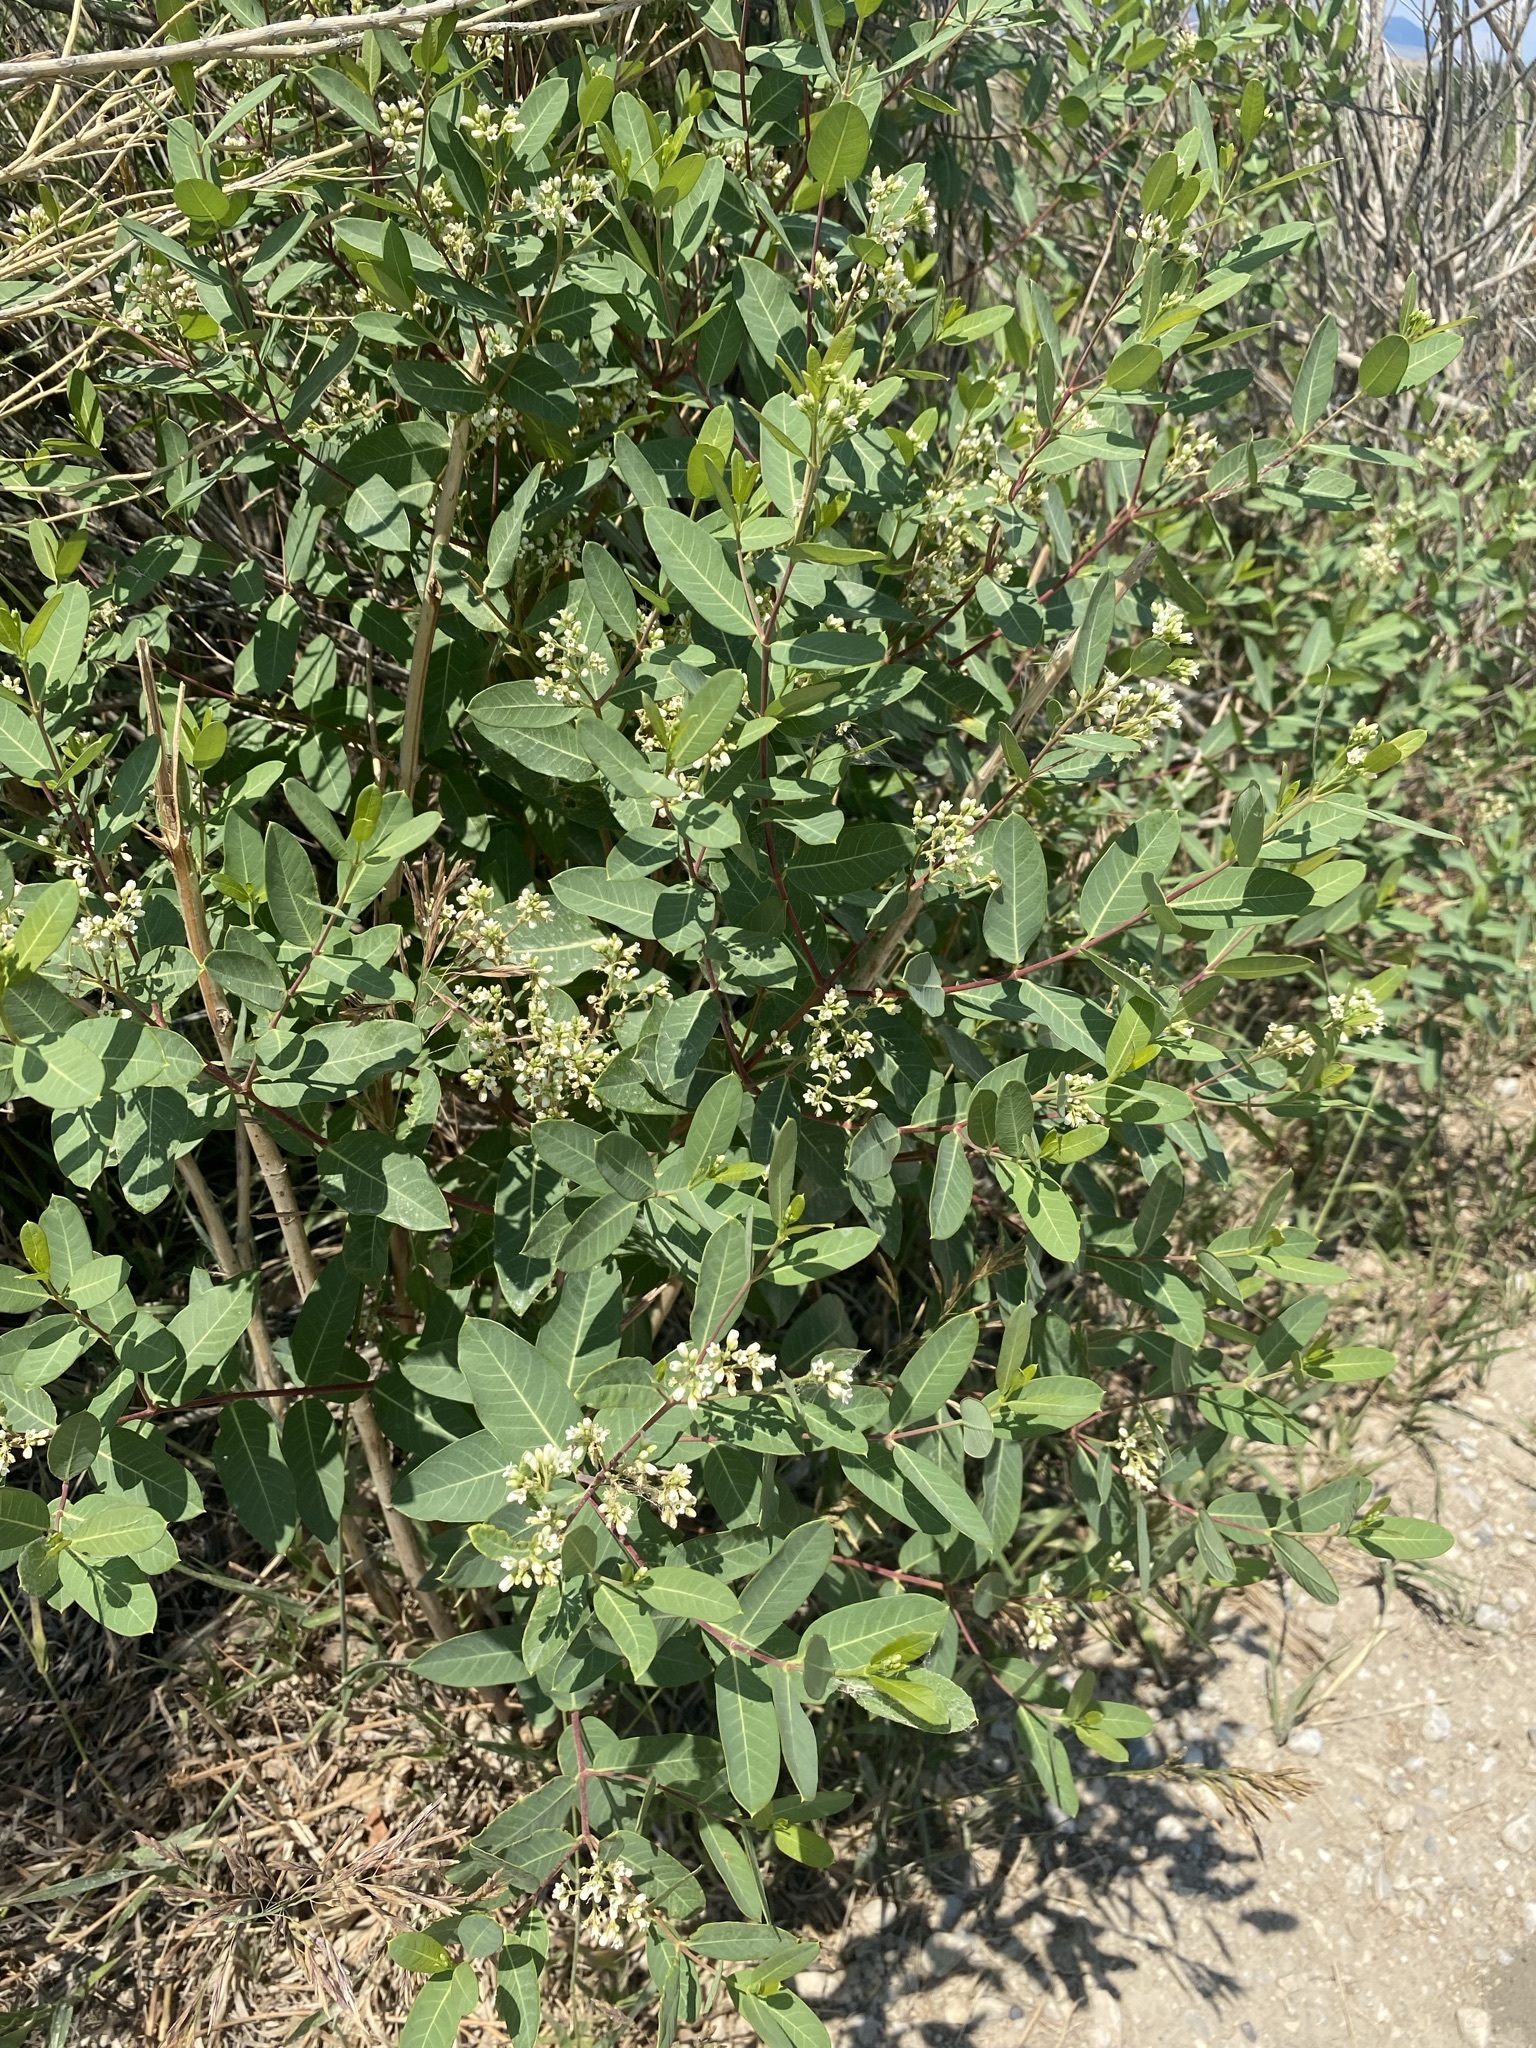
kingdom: Plantae
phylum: Tracheophyta
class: Magnoliopsida
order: Gentianales
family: Apocynaceae
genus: Apocynum
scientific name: Apocynum cannabinum
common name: Hemp dogbane
